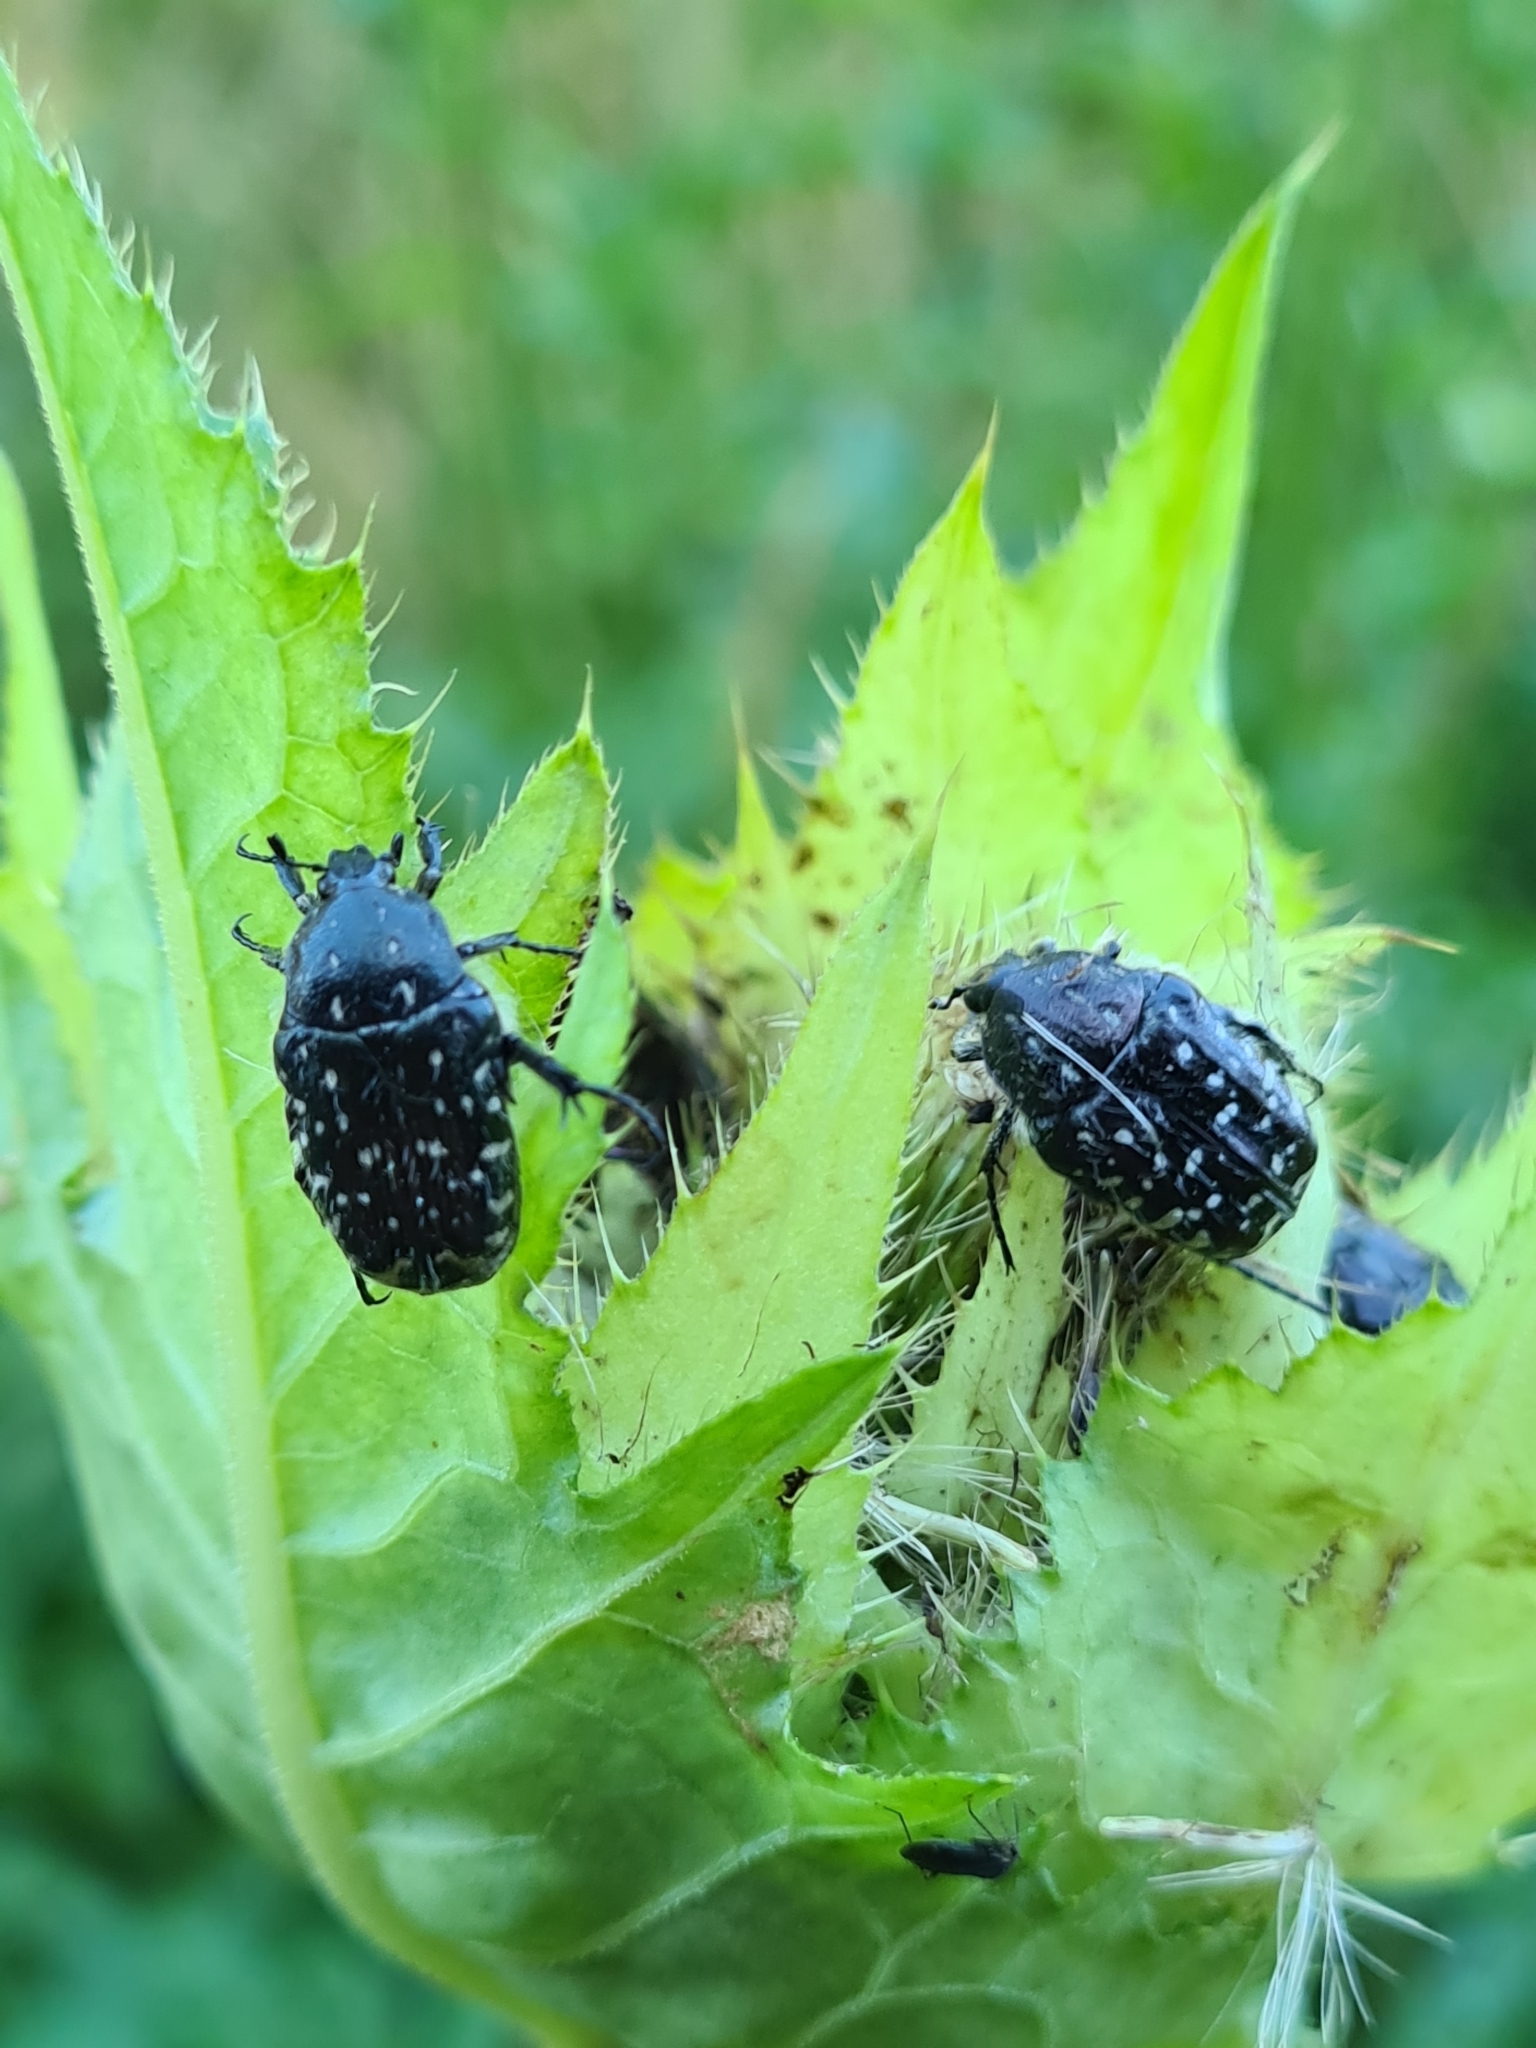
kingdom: Animalia
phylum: Arthropoda
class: Insecta
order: Coleoptera
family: Scarabaeidae
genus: Oxythyrea
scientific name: Oxythyrea funesta
